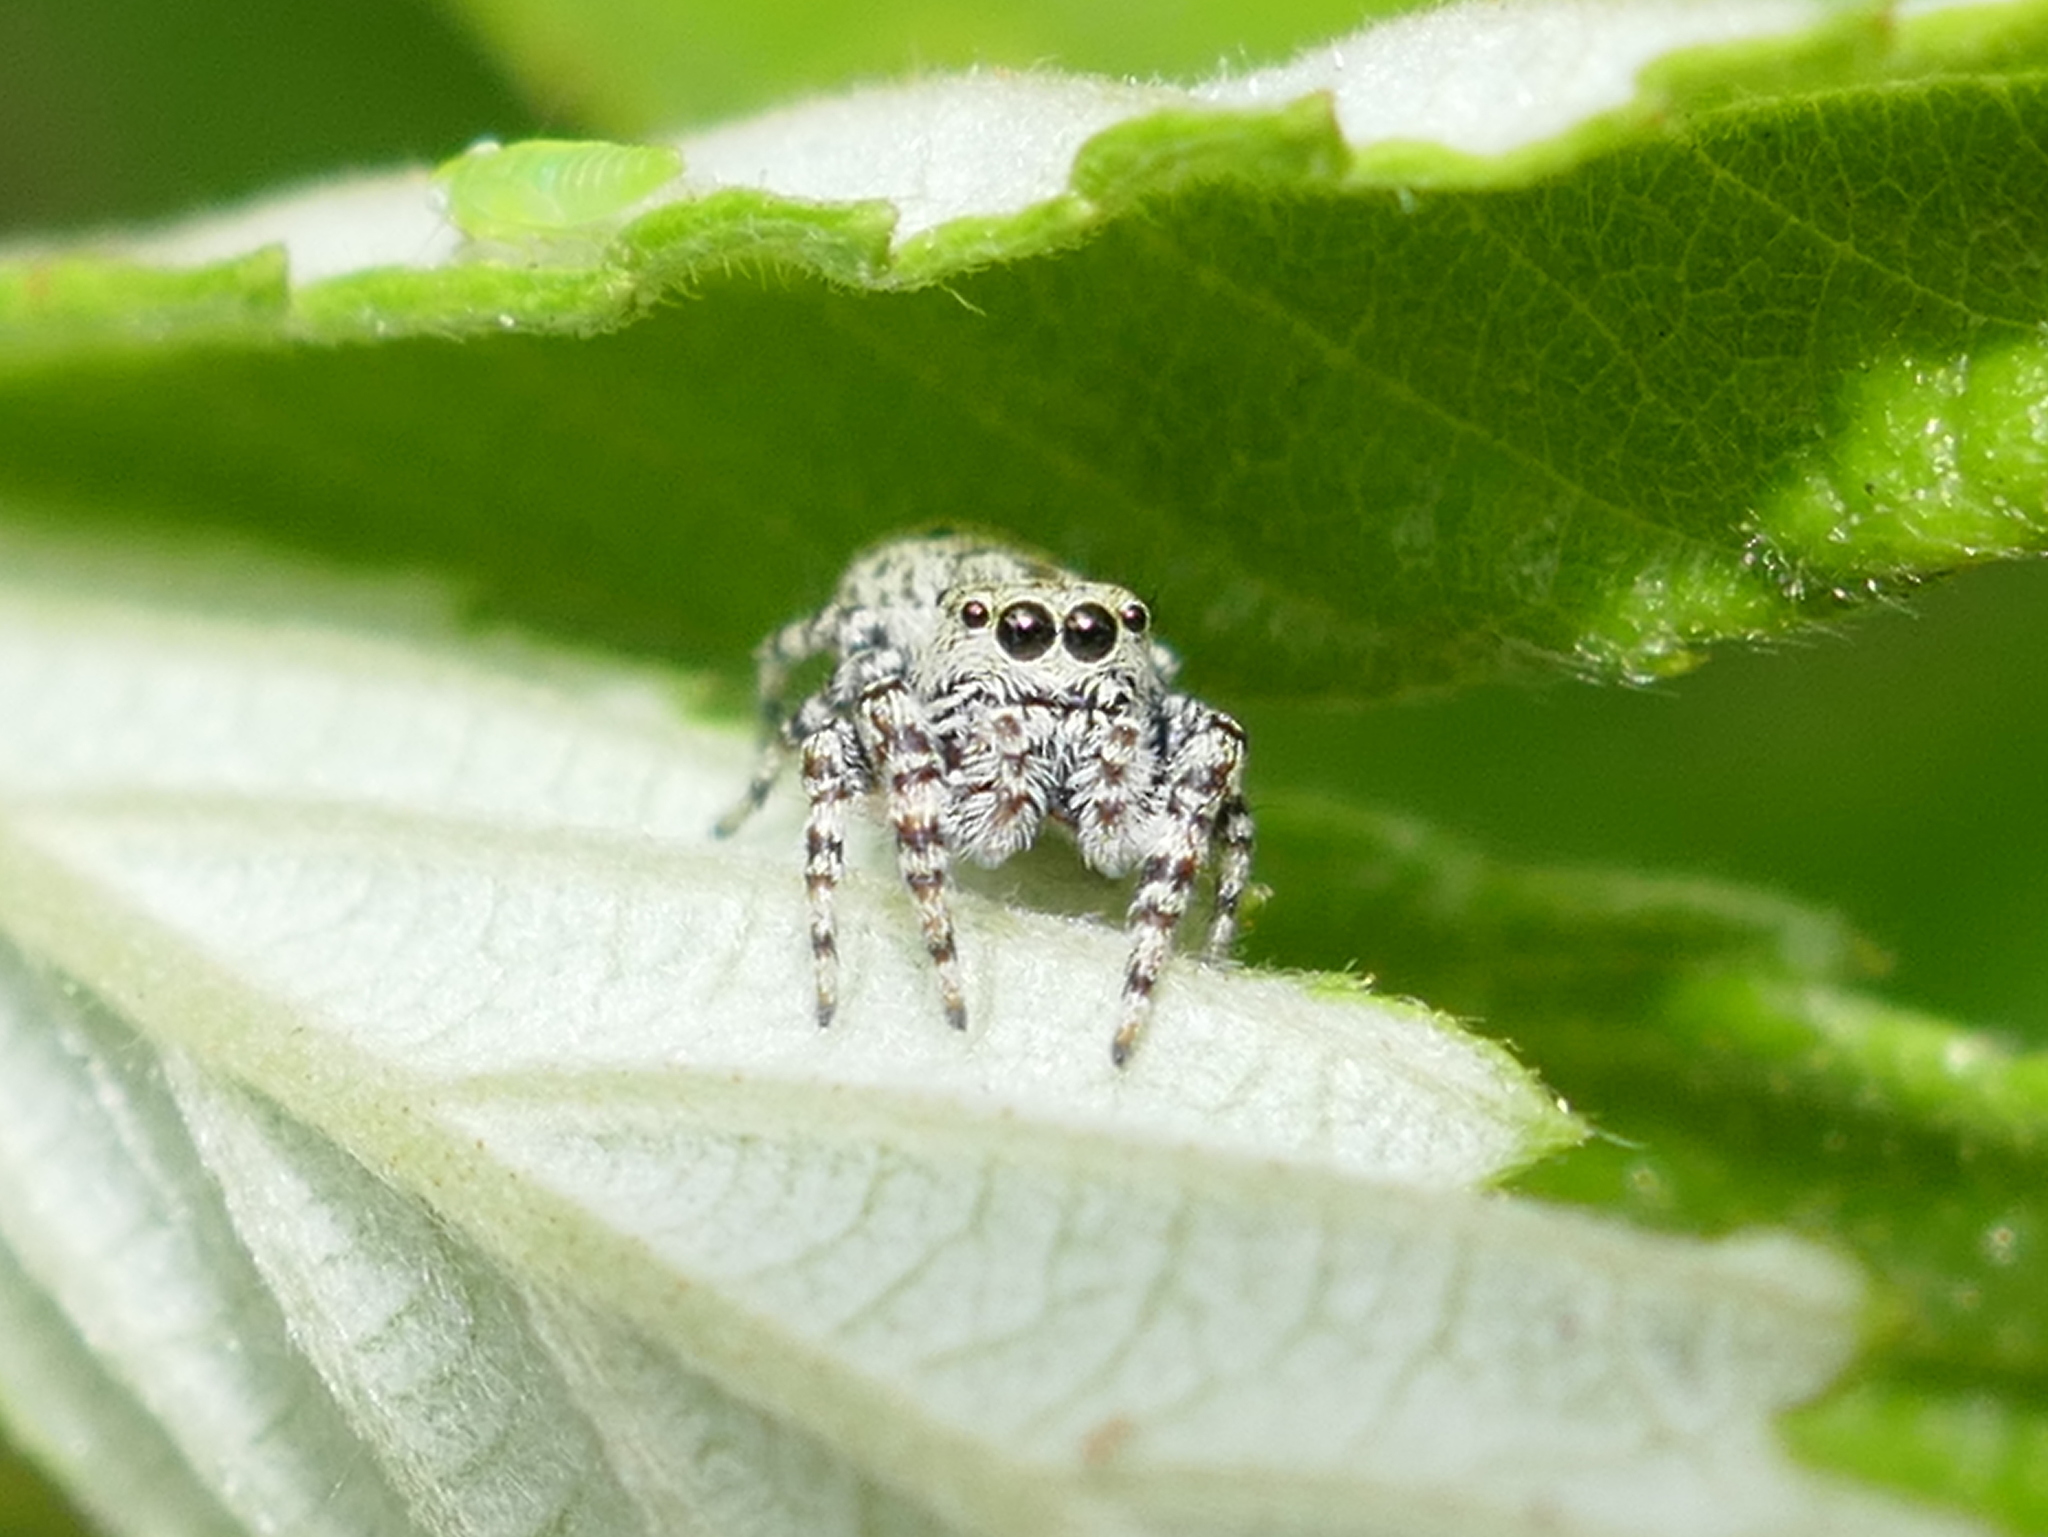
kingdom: Animalia
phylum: Arthropoda
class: Arachnida
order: Araneae
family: Salticidae
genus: Pelegrina
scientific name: Pelegrina galathea
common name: Jumping spiders
